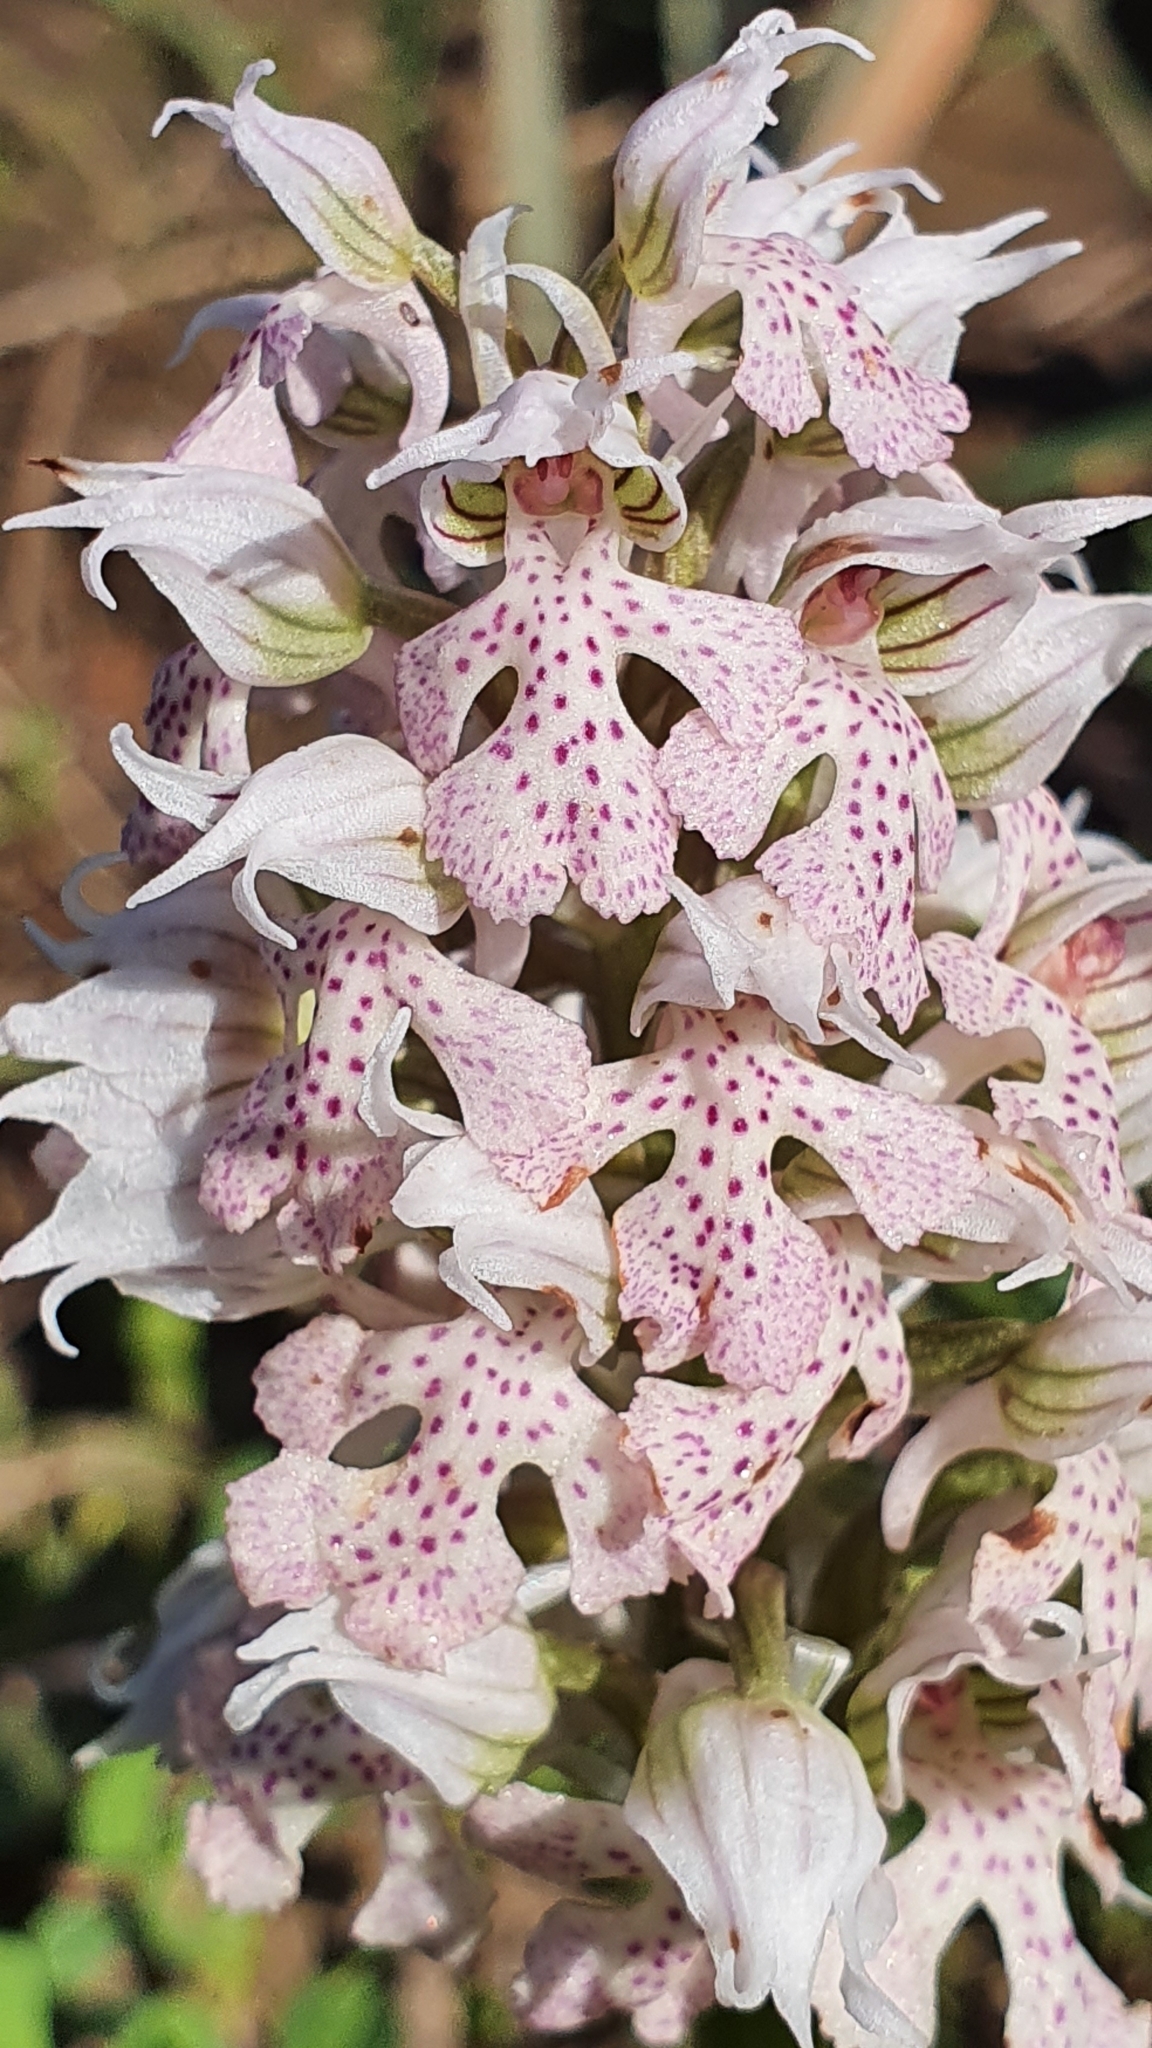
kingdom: Plantae
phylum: Tracheophyta
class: Liliopsida
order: Asparagales
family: Orchidaceae
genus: Neotinea
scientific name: Neotinea lactea
